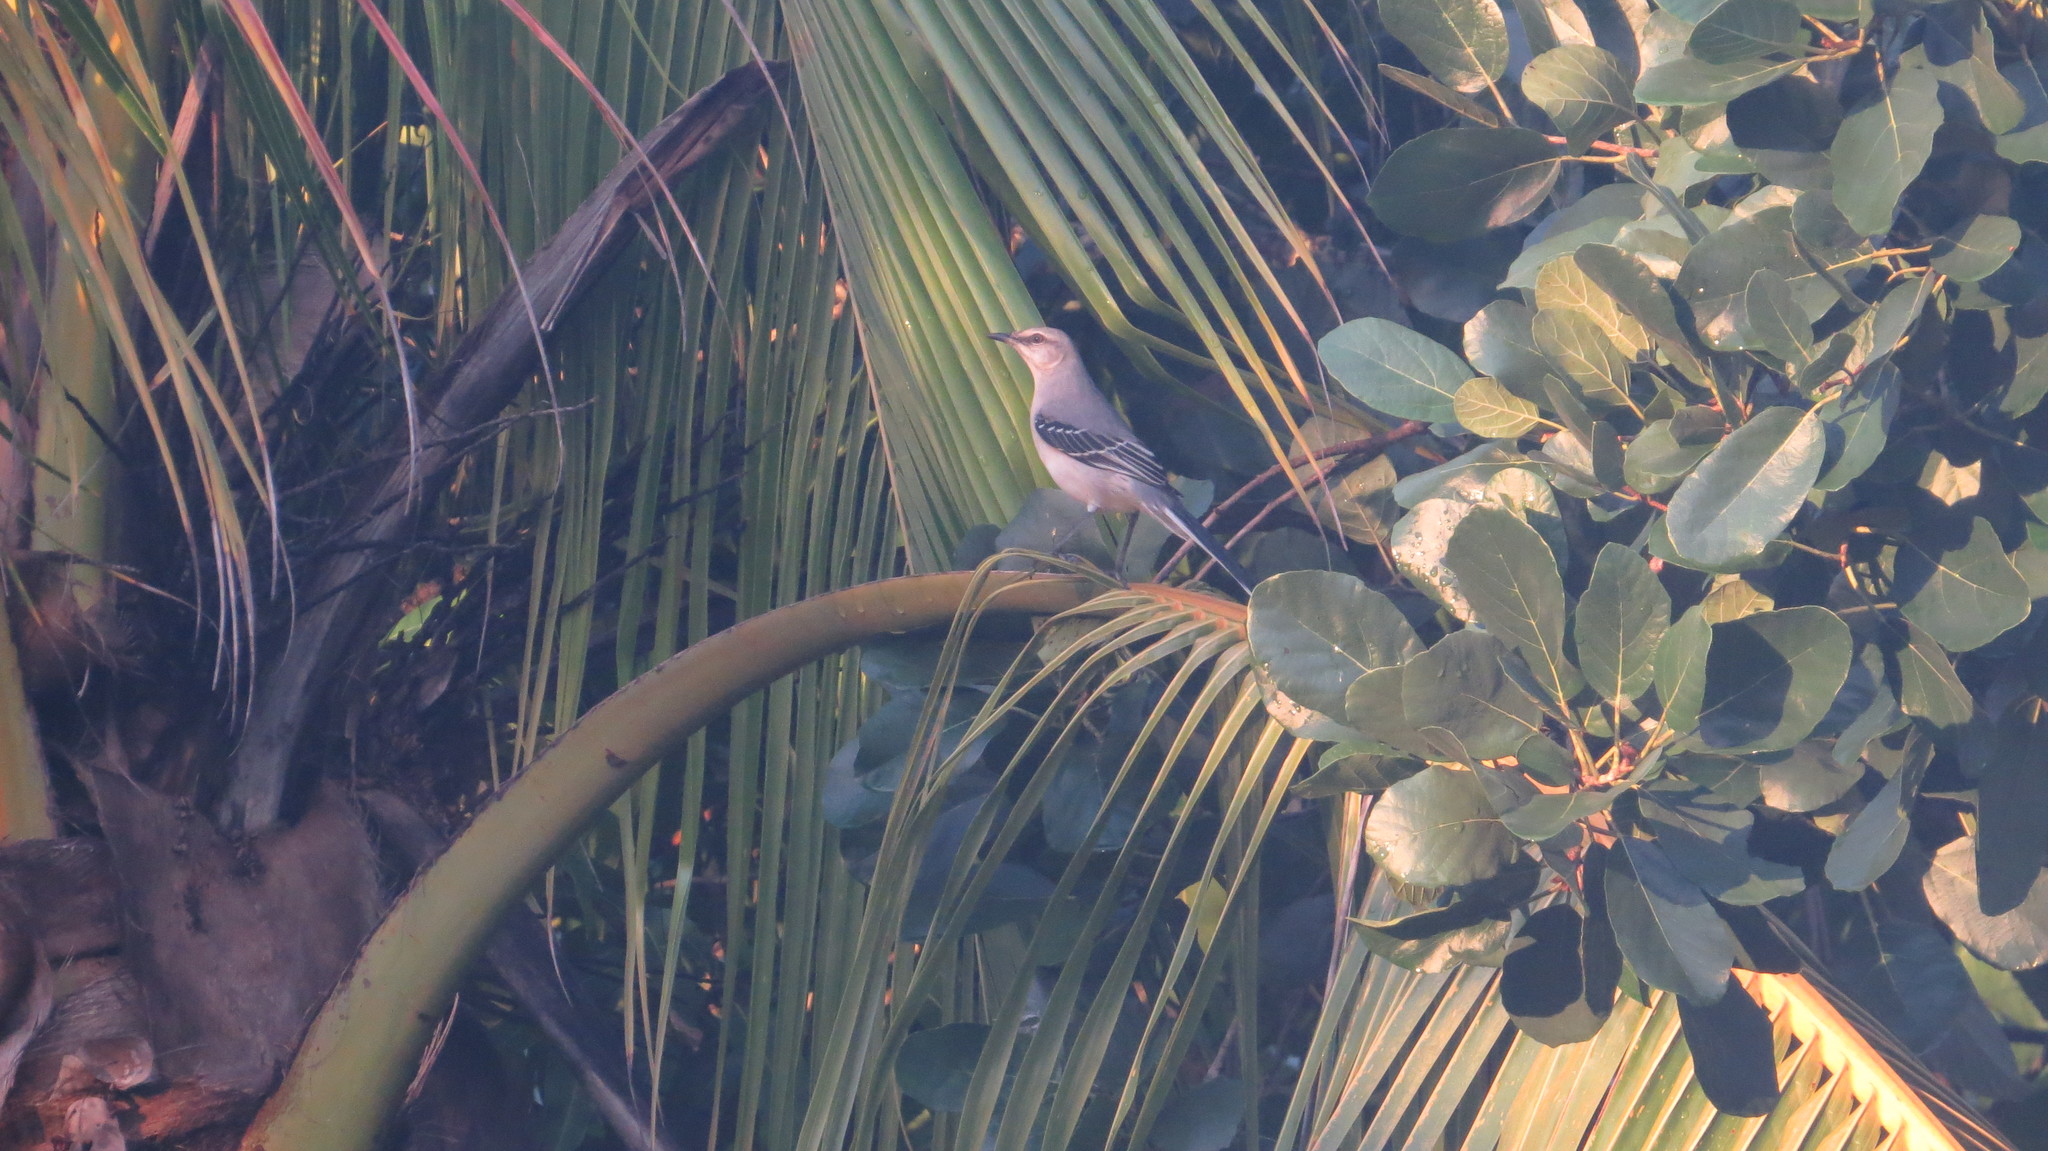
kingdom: Animalia
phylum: Chordata
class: Aves
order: Passeriformes
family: Mimidae
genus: Mimus
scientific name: Mimus gilvus
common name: Tropical mockingbird
